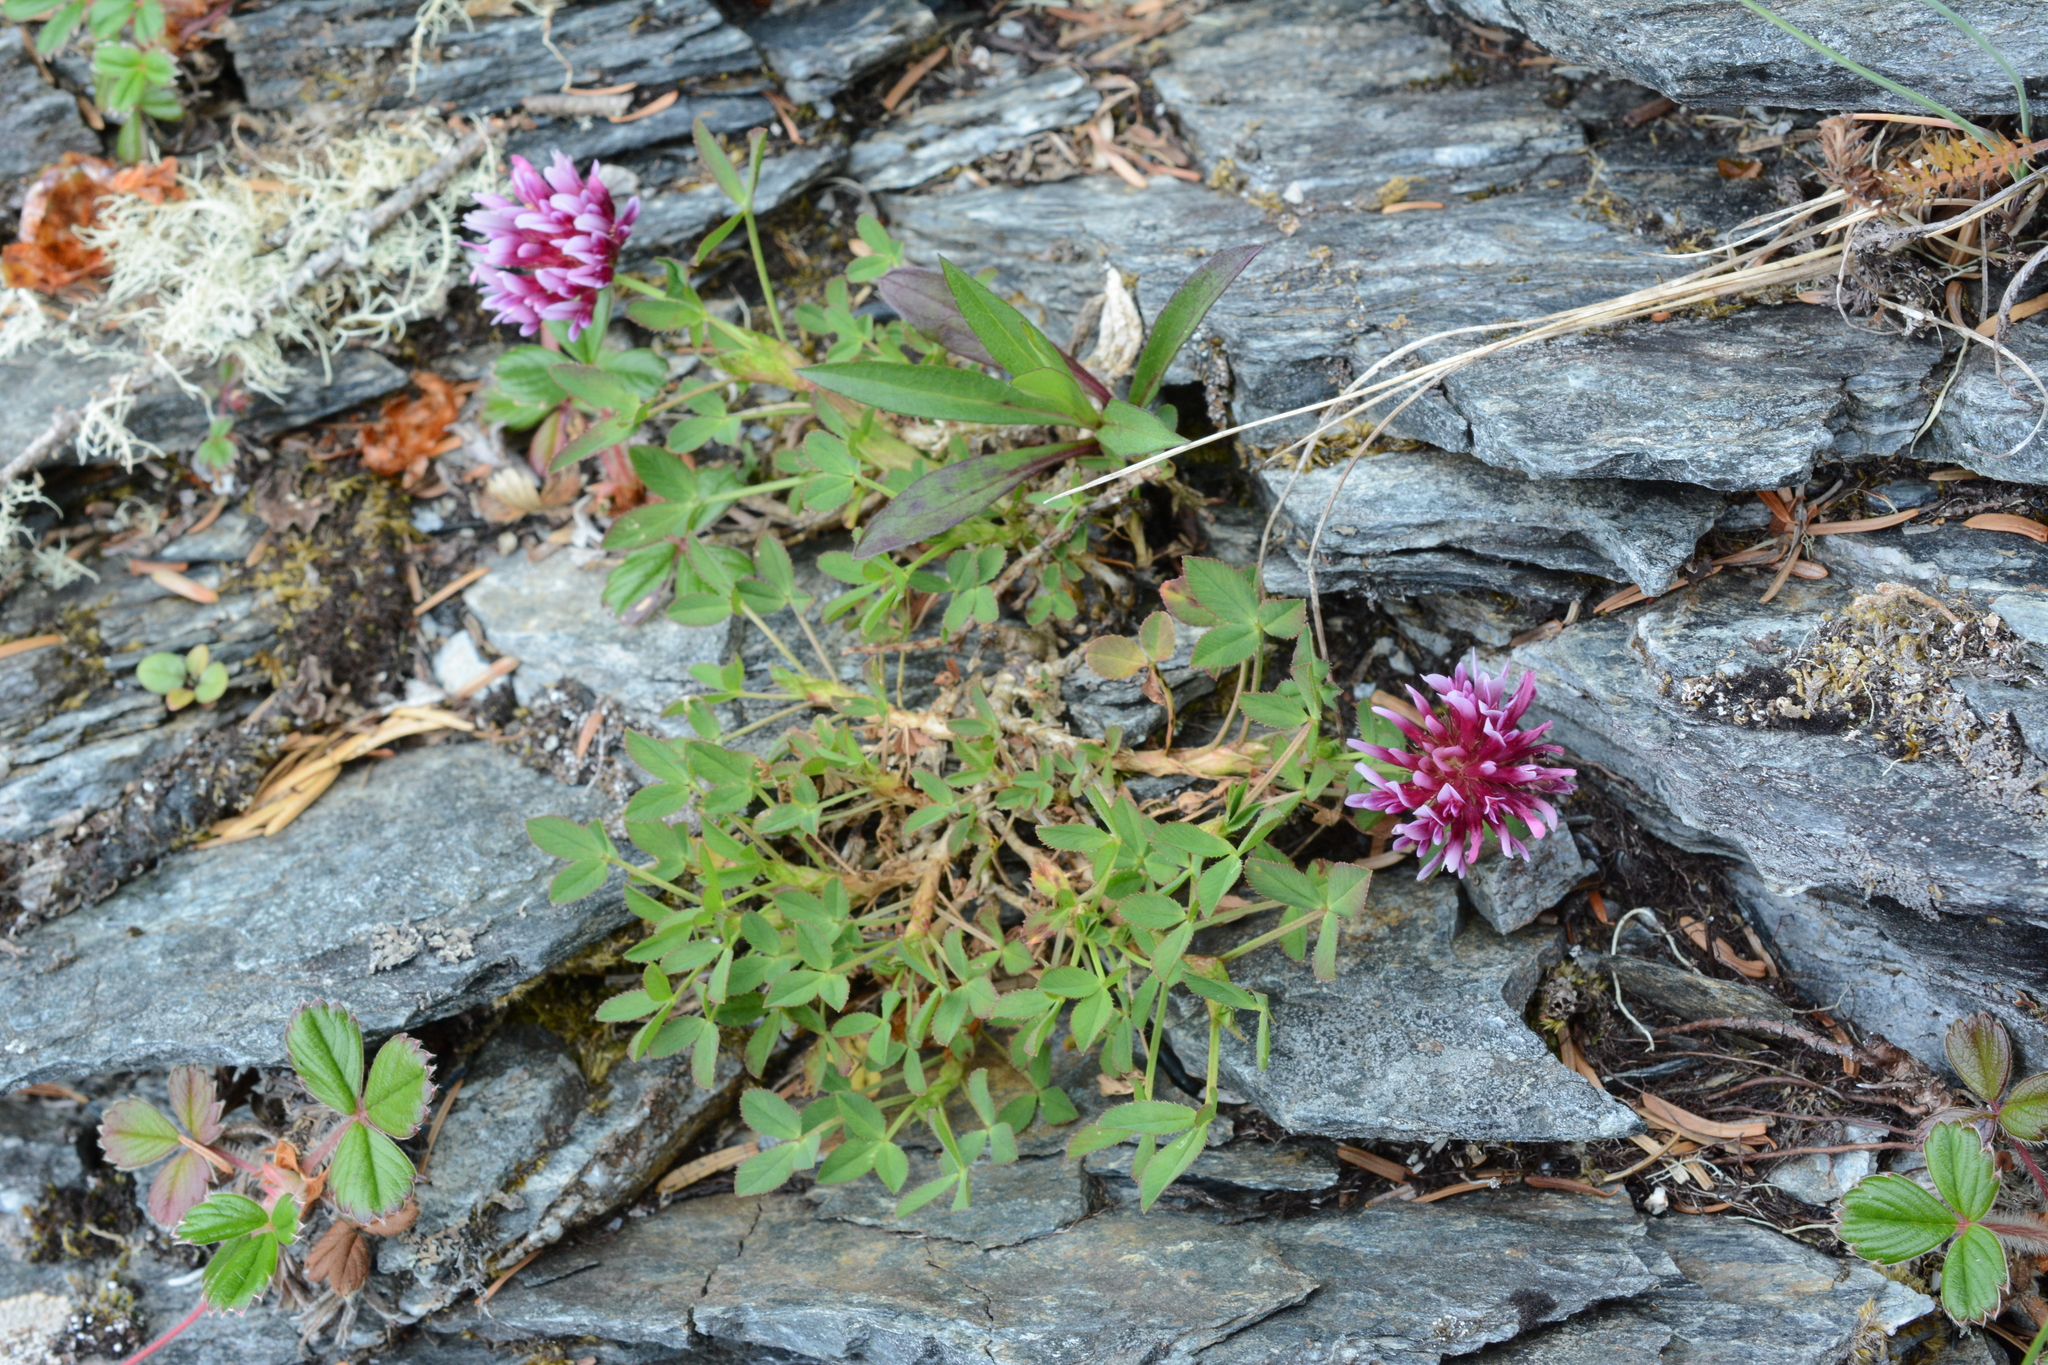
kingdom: Plantae
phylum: Tracheophyta
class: Magnoliopsida
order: Fabales
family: Fabaceae
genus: Trifolium
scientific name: Trifolium wormskioldii
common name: Springbank clover
